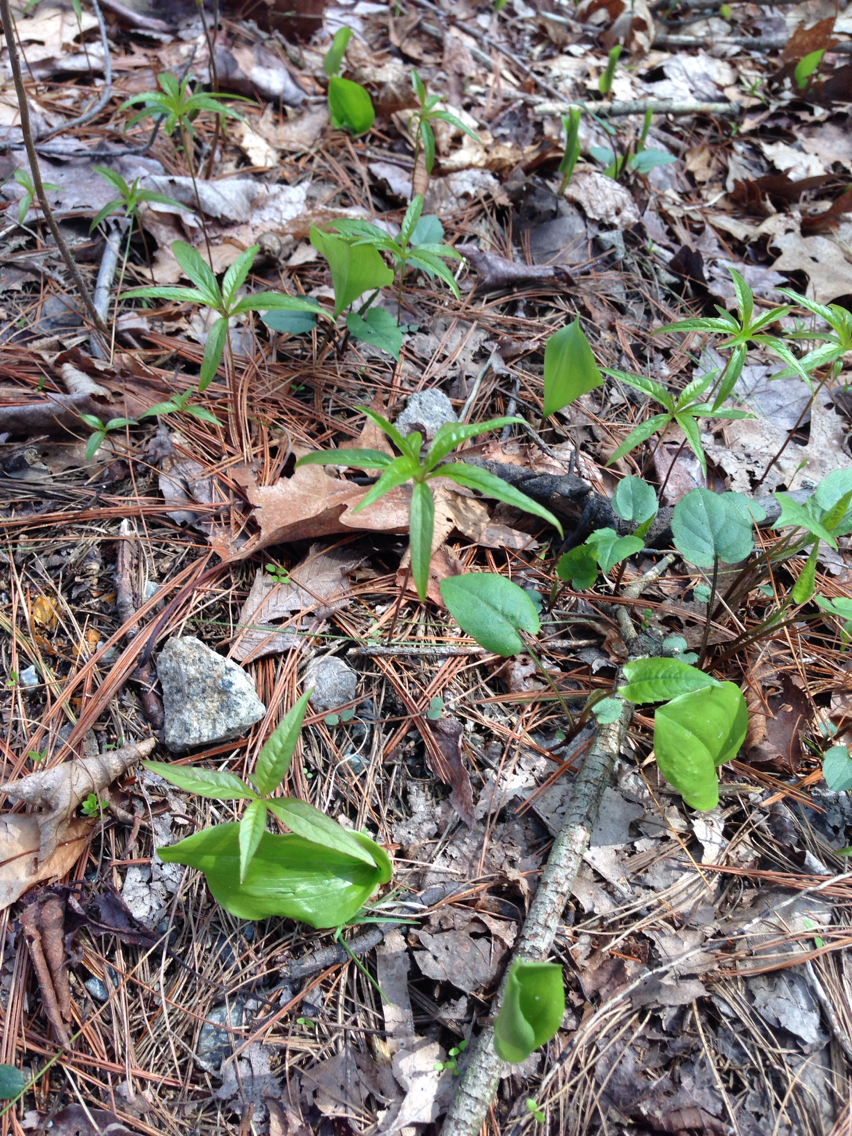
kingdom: Plantae
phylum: Tracheophyta
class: Magnoliopsida
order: Ericales
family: Primulaceae
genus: Lysimachia
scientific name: Lysimachia borealis
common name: American starflower
